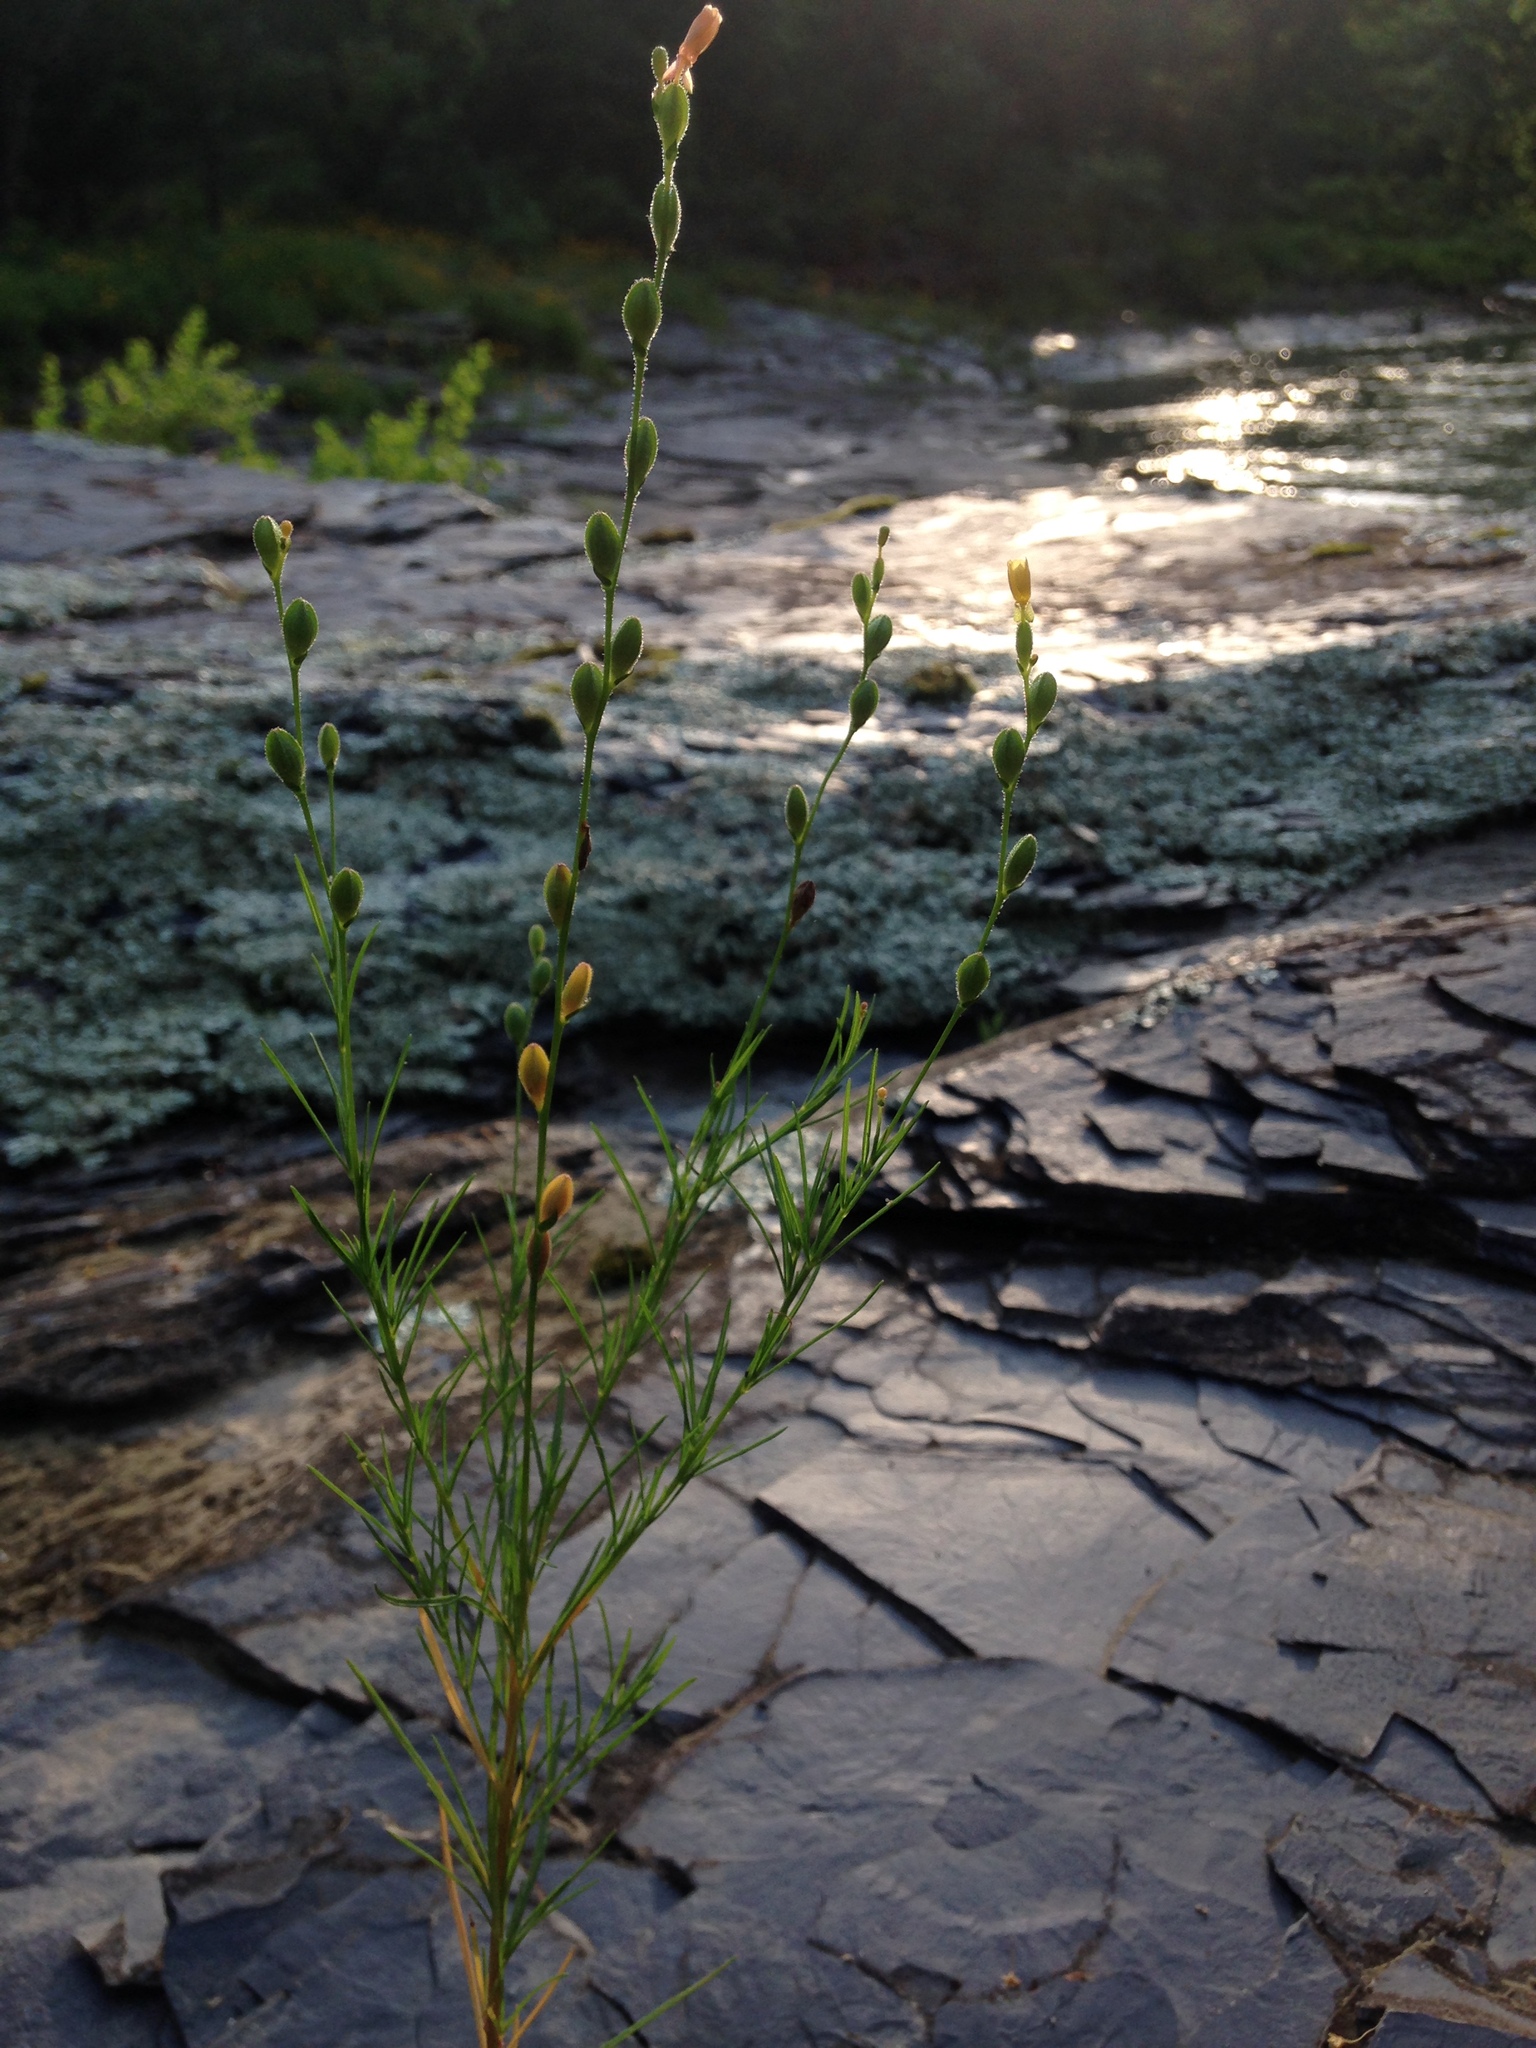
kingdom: Plantae
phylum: Tracheophyta
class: Magnoliopsida
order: Myrtales
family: Onagraceae
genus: Oenothera
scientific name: Oenothera linifolia
